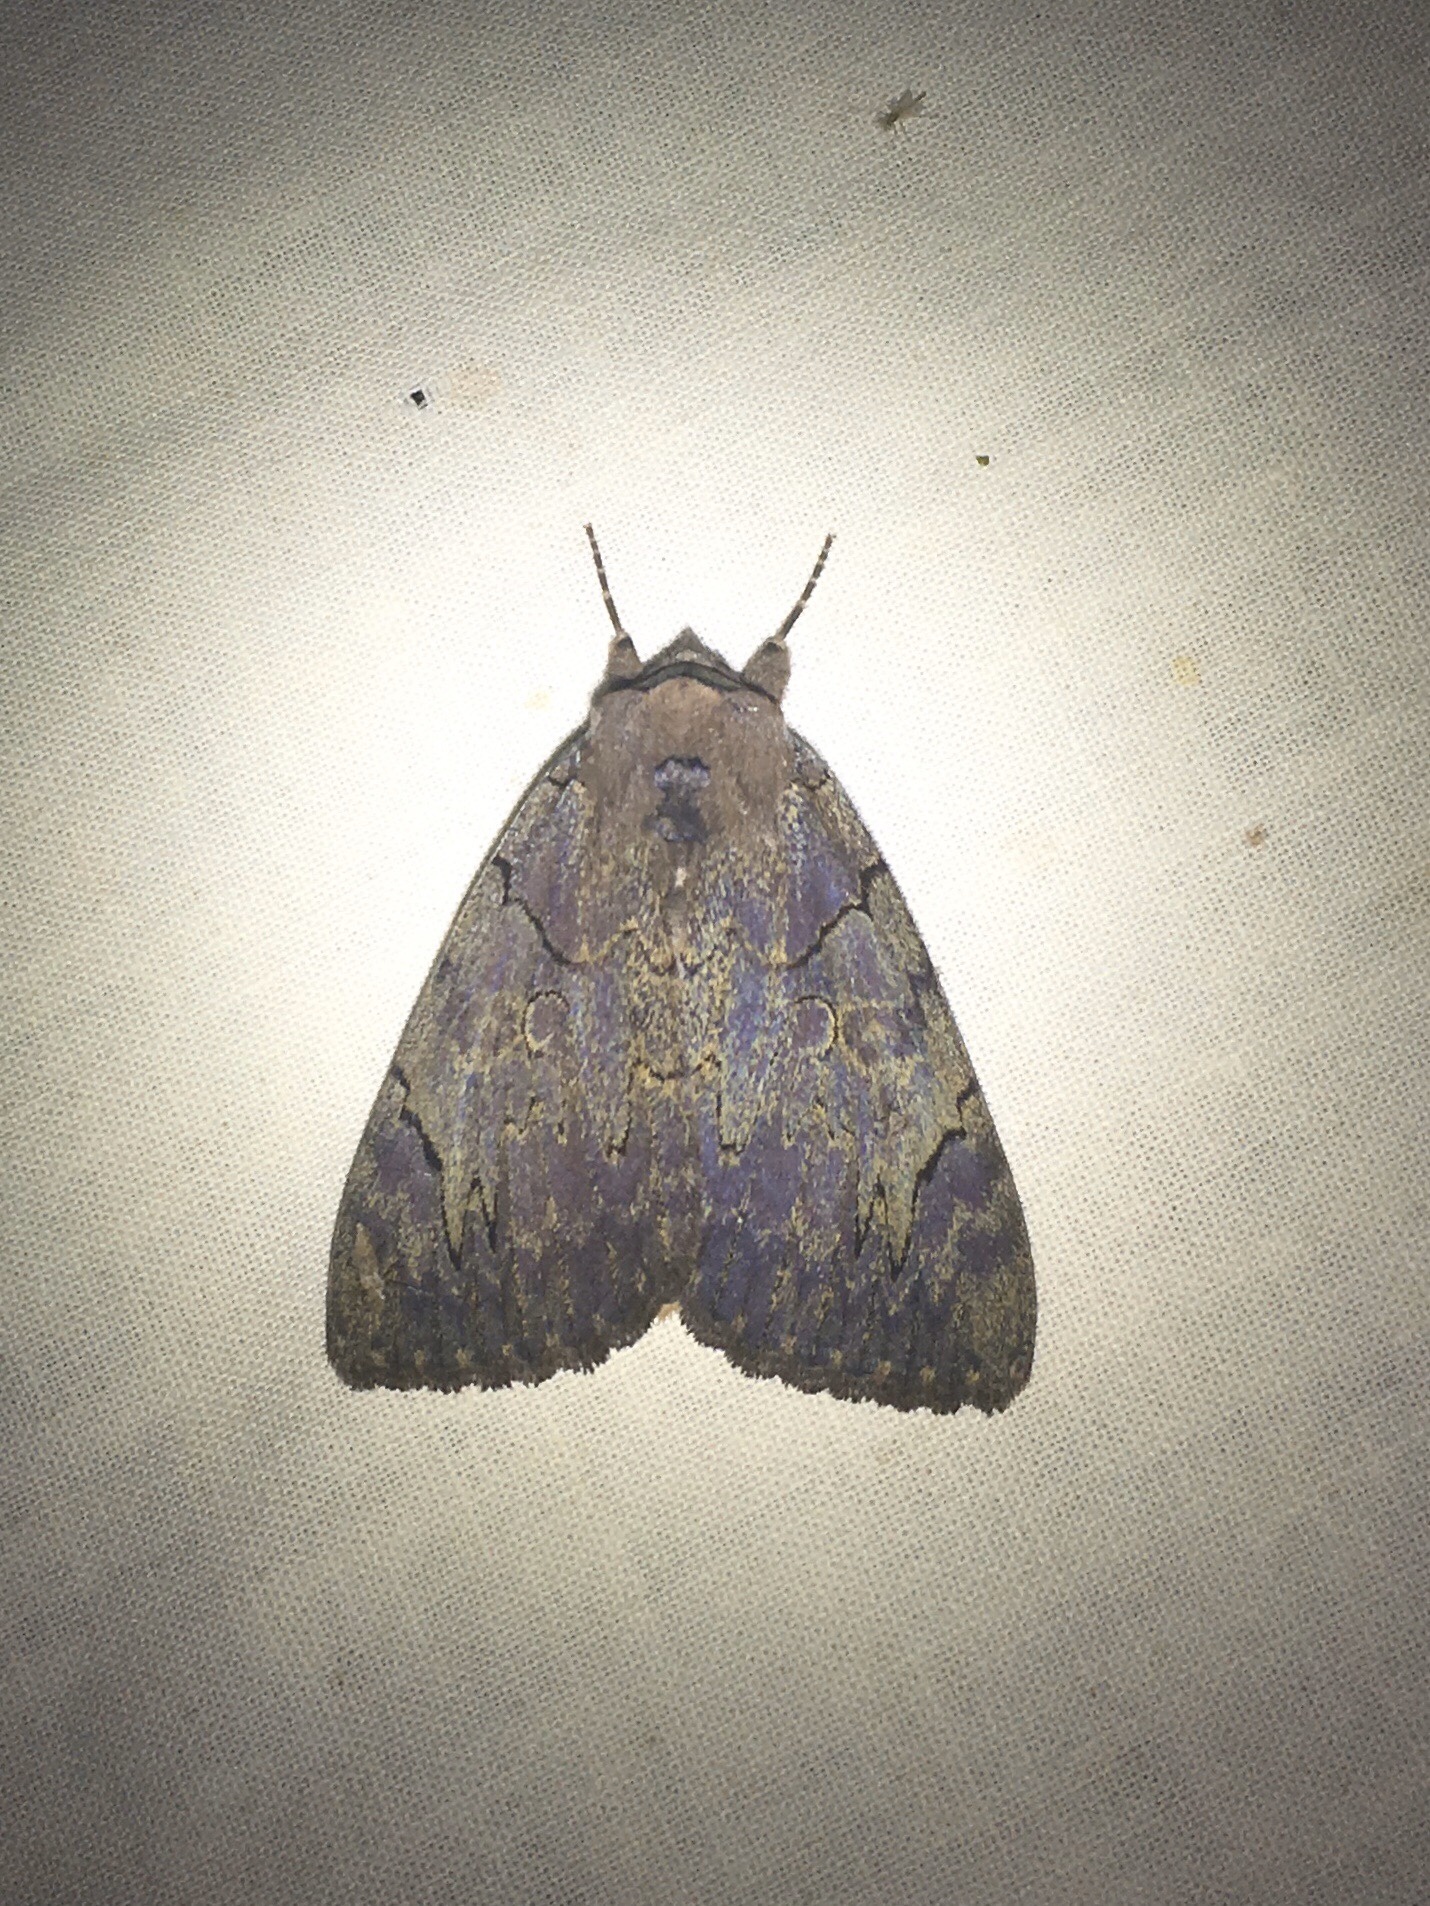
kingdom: Animalia
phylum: Arthropoda
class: Insecta
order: Lepidoptera
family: Erebidae
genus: Catocala
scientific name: Catocala cara
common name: Darling underwing
